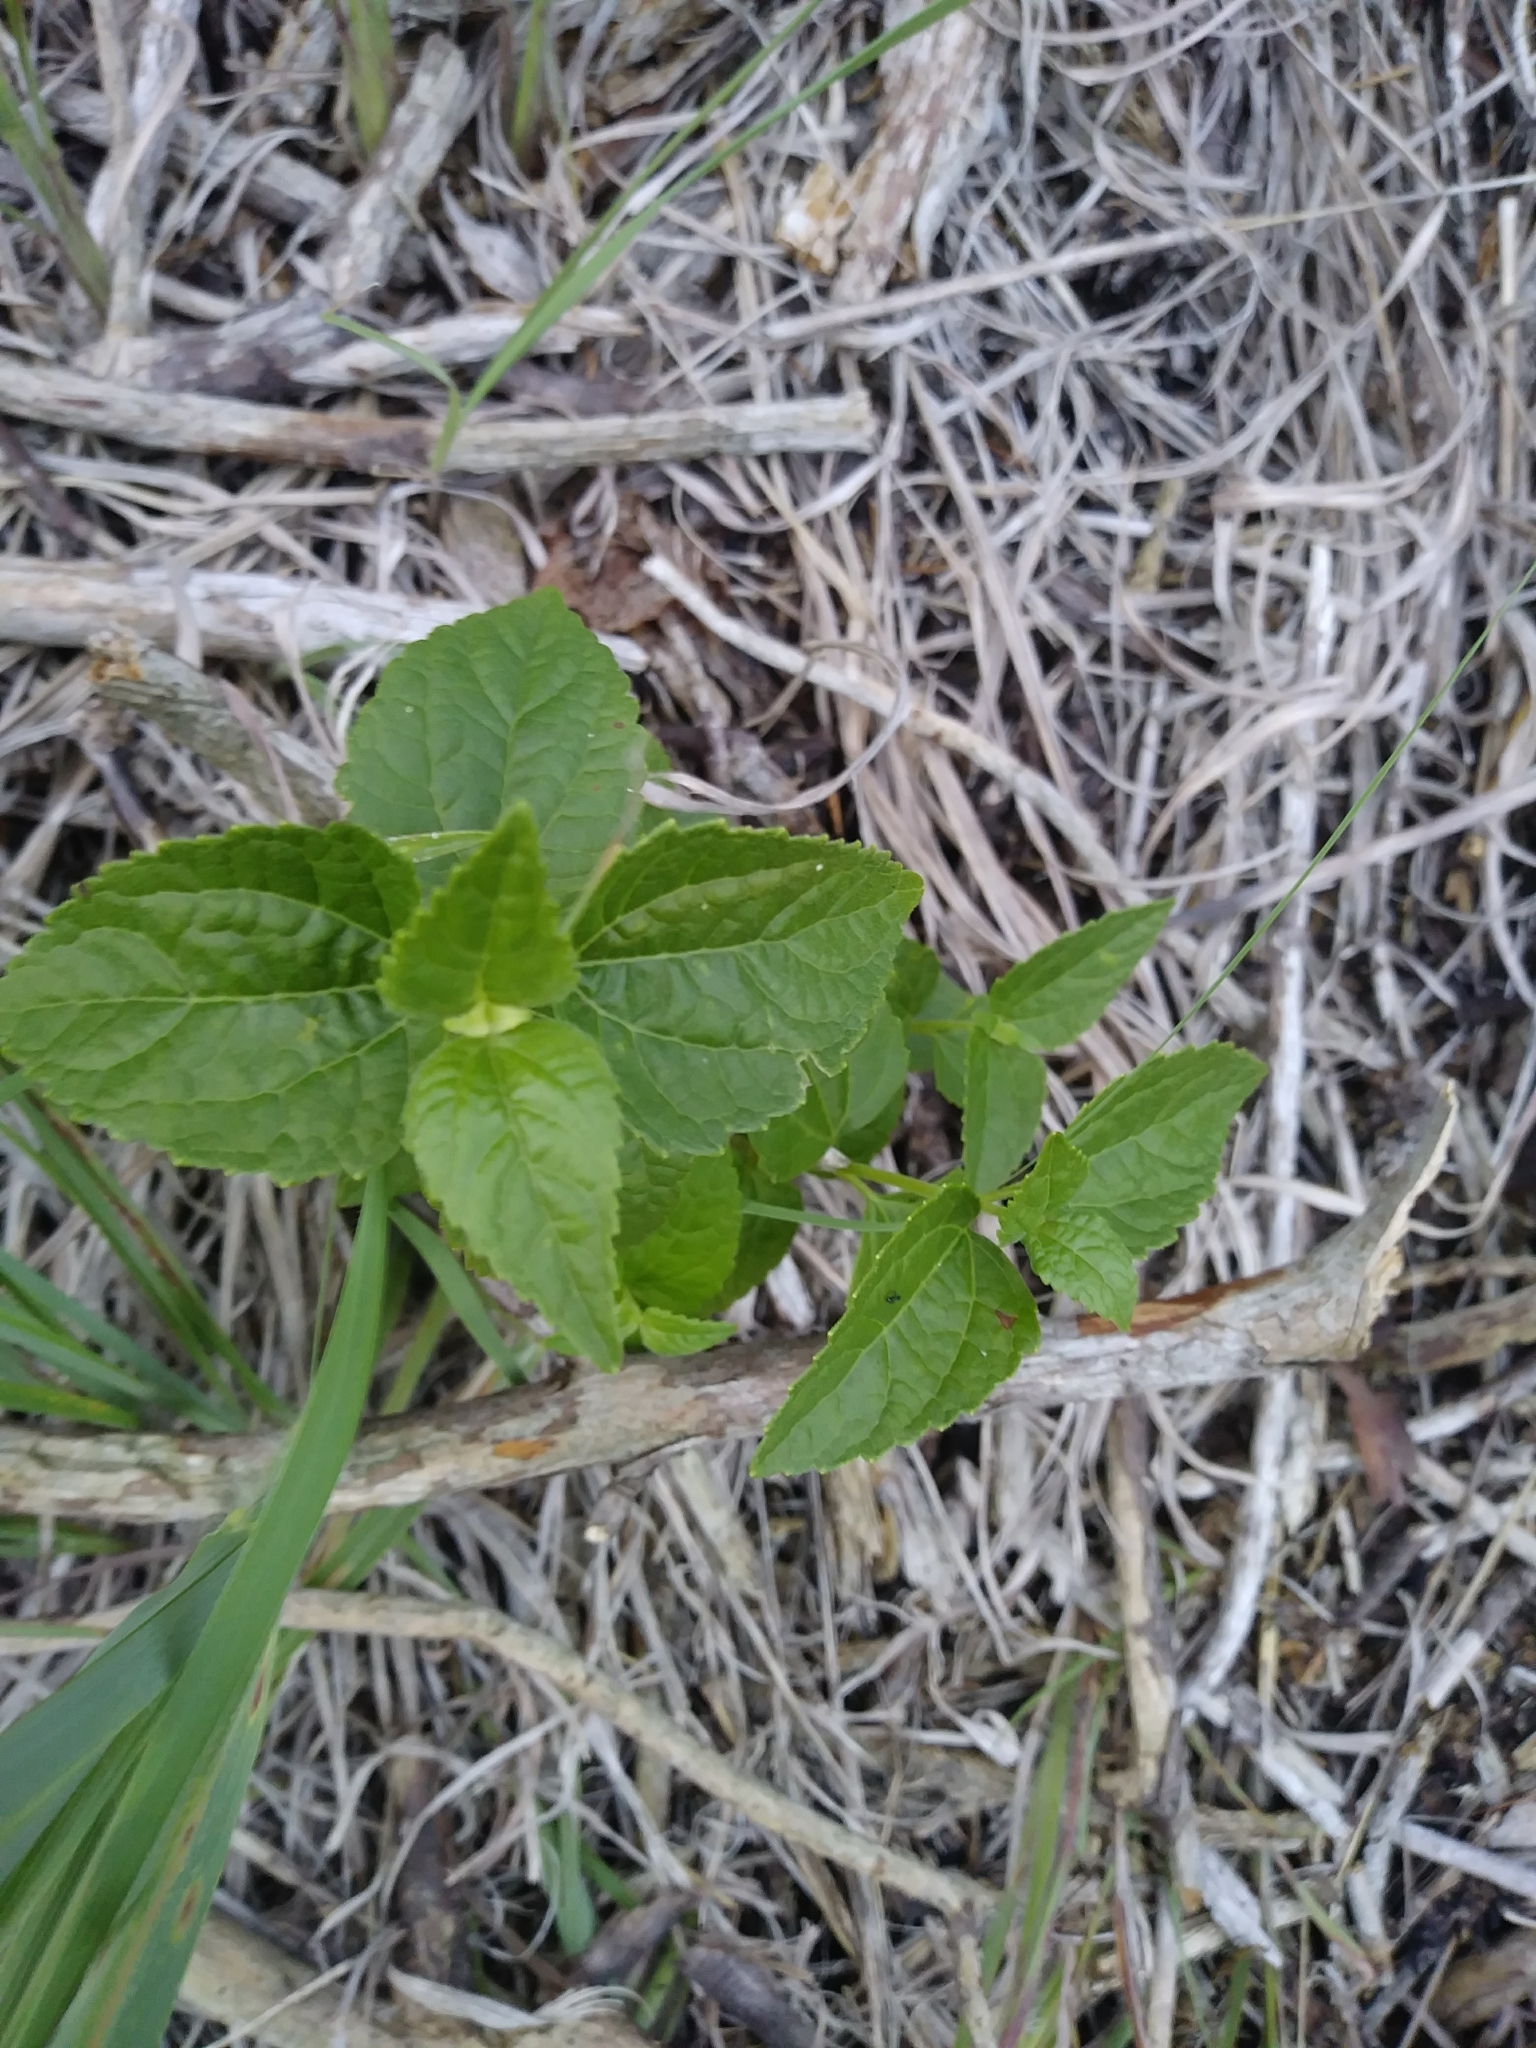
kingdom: Plantae
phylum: Tracheophyta
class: Magnoliopsida
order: Asterales
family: Asteraceae
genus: Ageratina
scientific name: Ageratina aromatica
